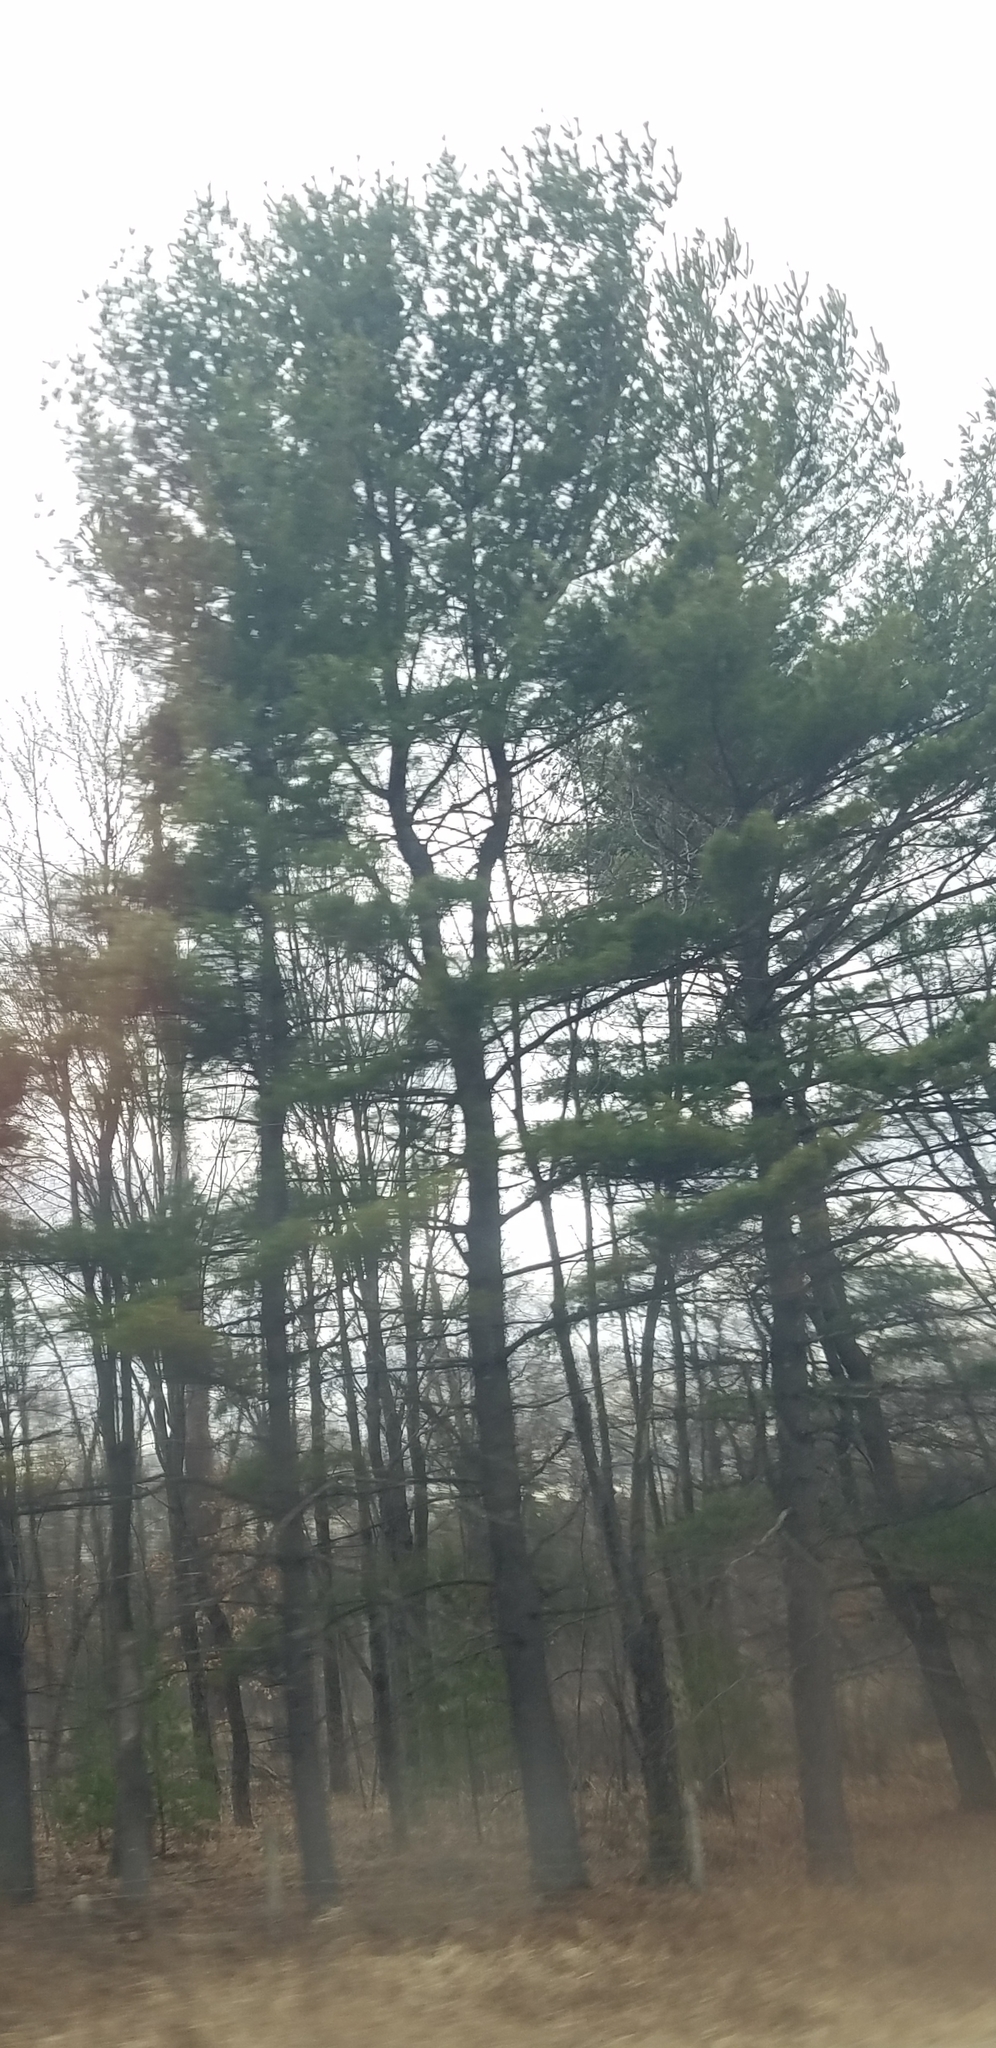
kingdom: Plantae
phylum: Tracheophyta
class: Pinopsida
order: Pinales
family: Pinaceae
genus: Pinus
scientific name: Pinus strobus
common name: Weymouth pine
